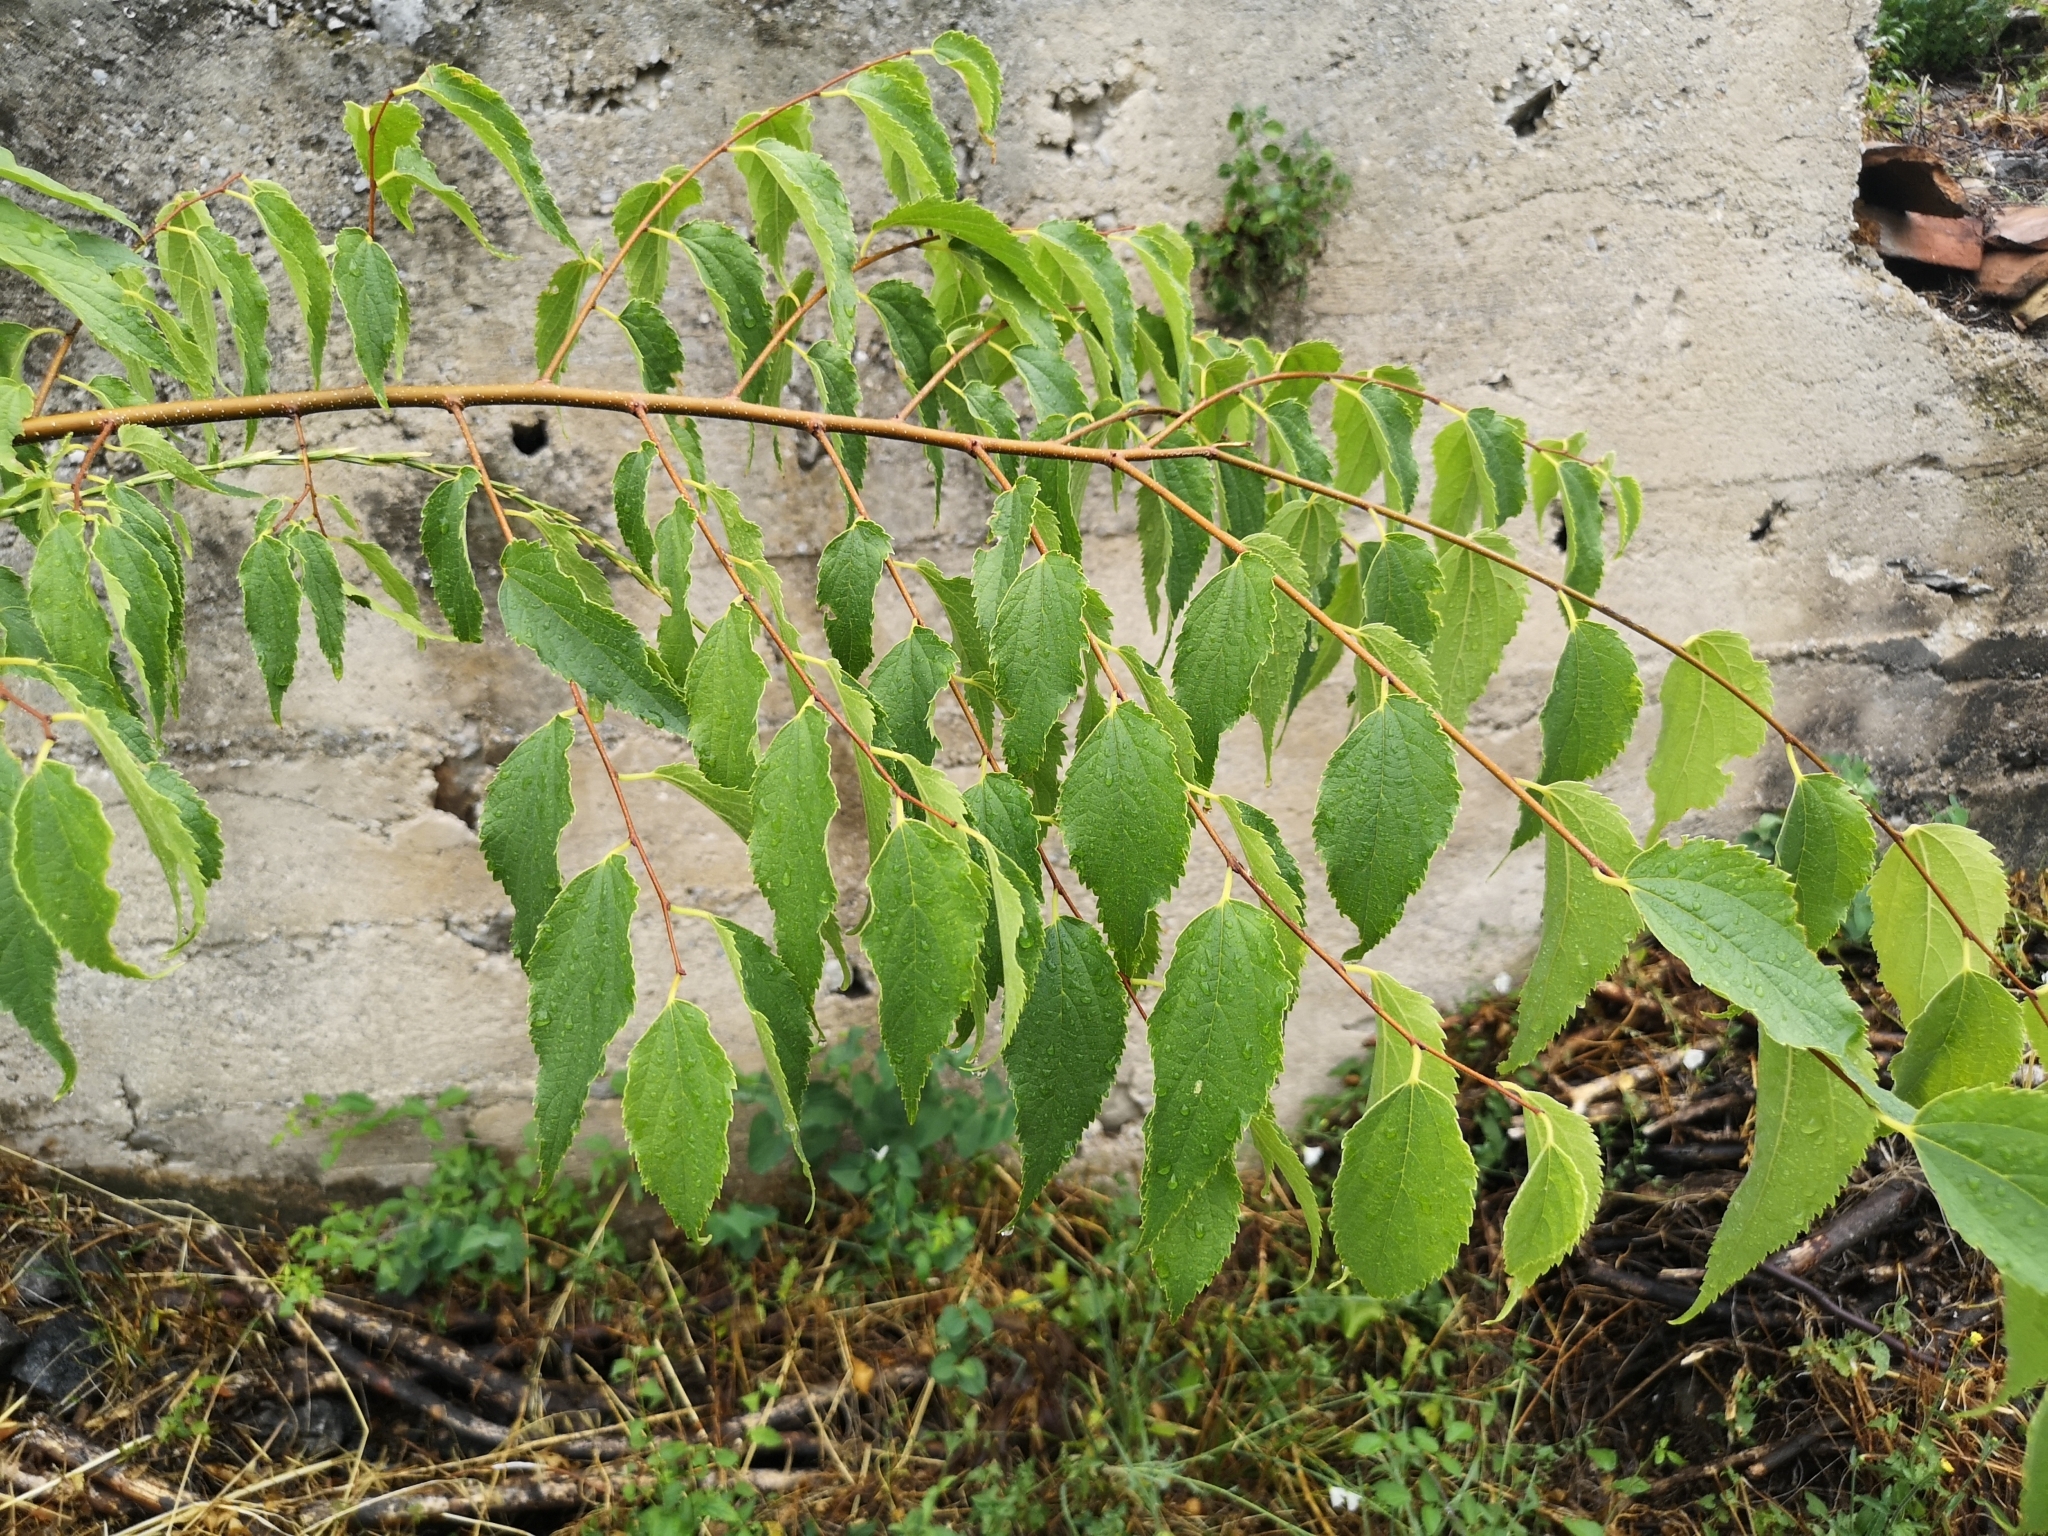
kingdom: Plantae
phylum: Tracheophyta
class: Magnoliopsida
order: Rosales
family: Cannabaceae
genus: Celtis
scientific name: Celtis australis
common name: European hackberry
